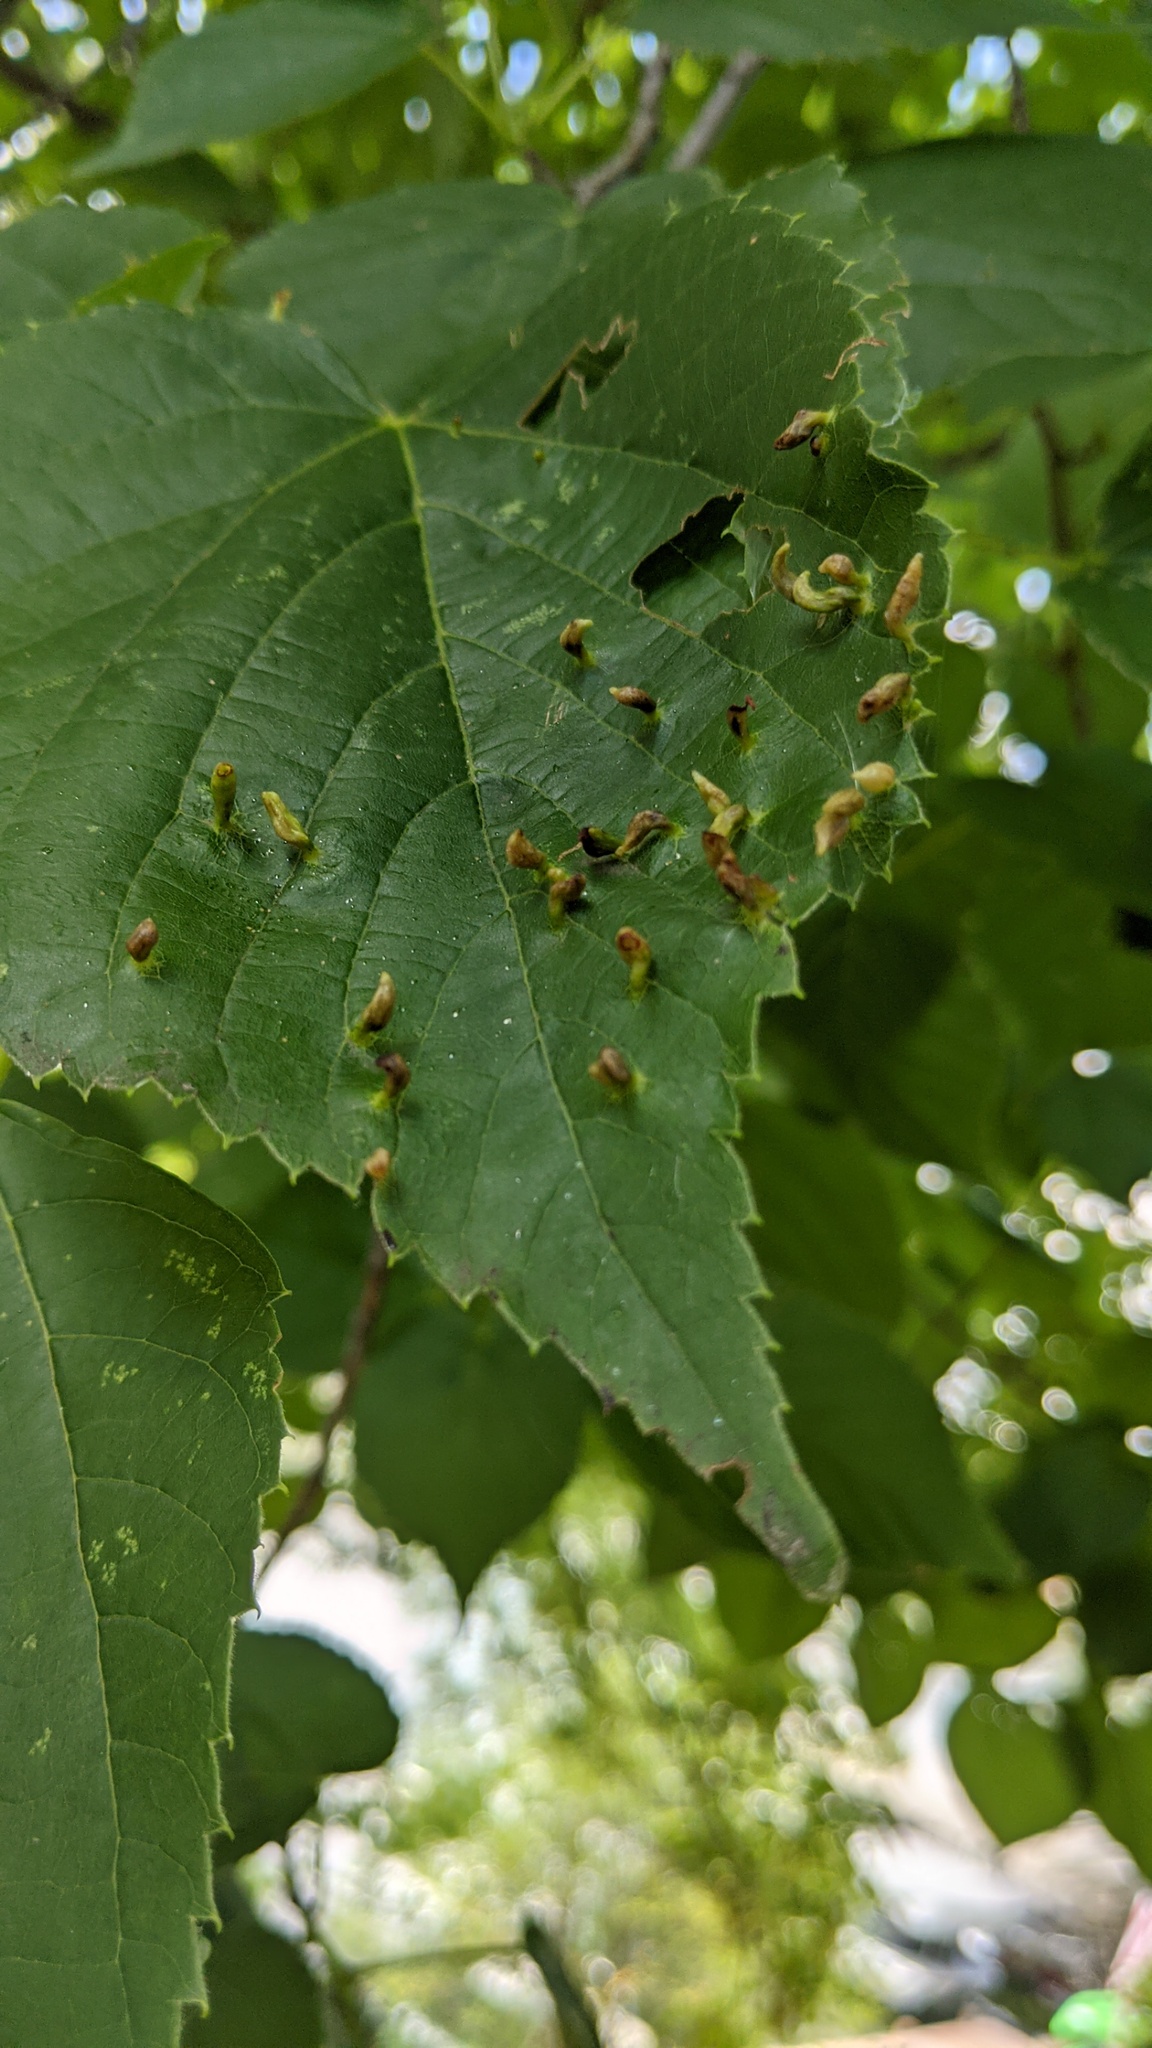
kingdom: Animalia
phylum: Arthropoda
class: Arachnida
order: Trombidiformes
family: Eriophyidae
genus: Eriophyes
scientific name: Eriophyes tiliae
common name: Red nail gall mite
